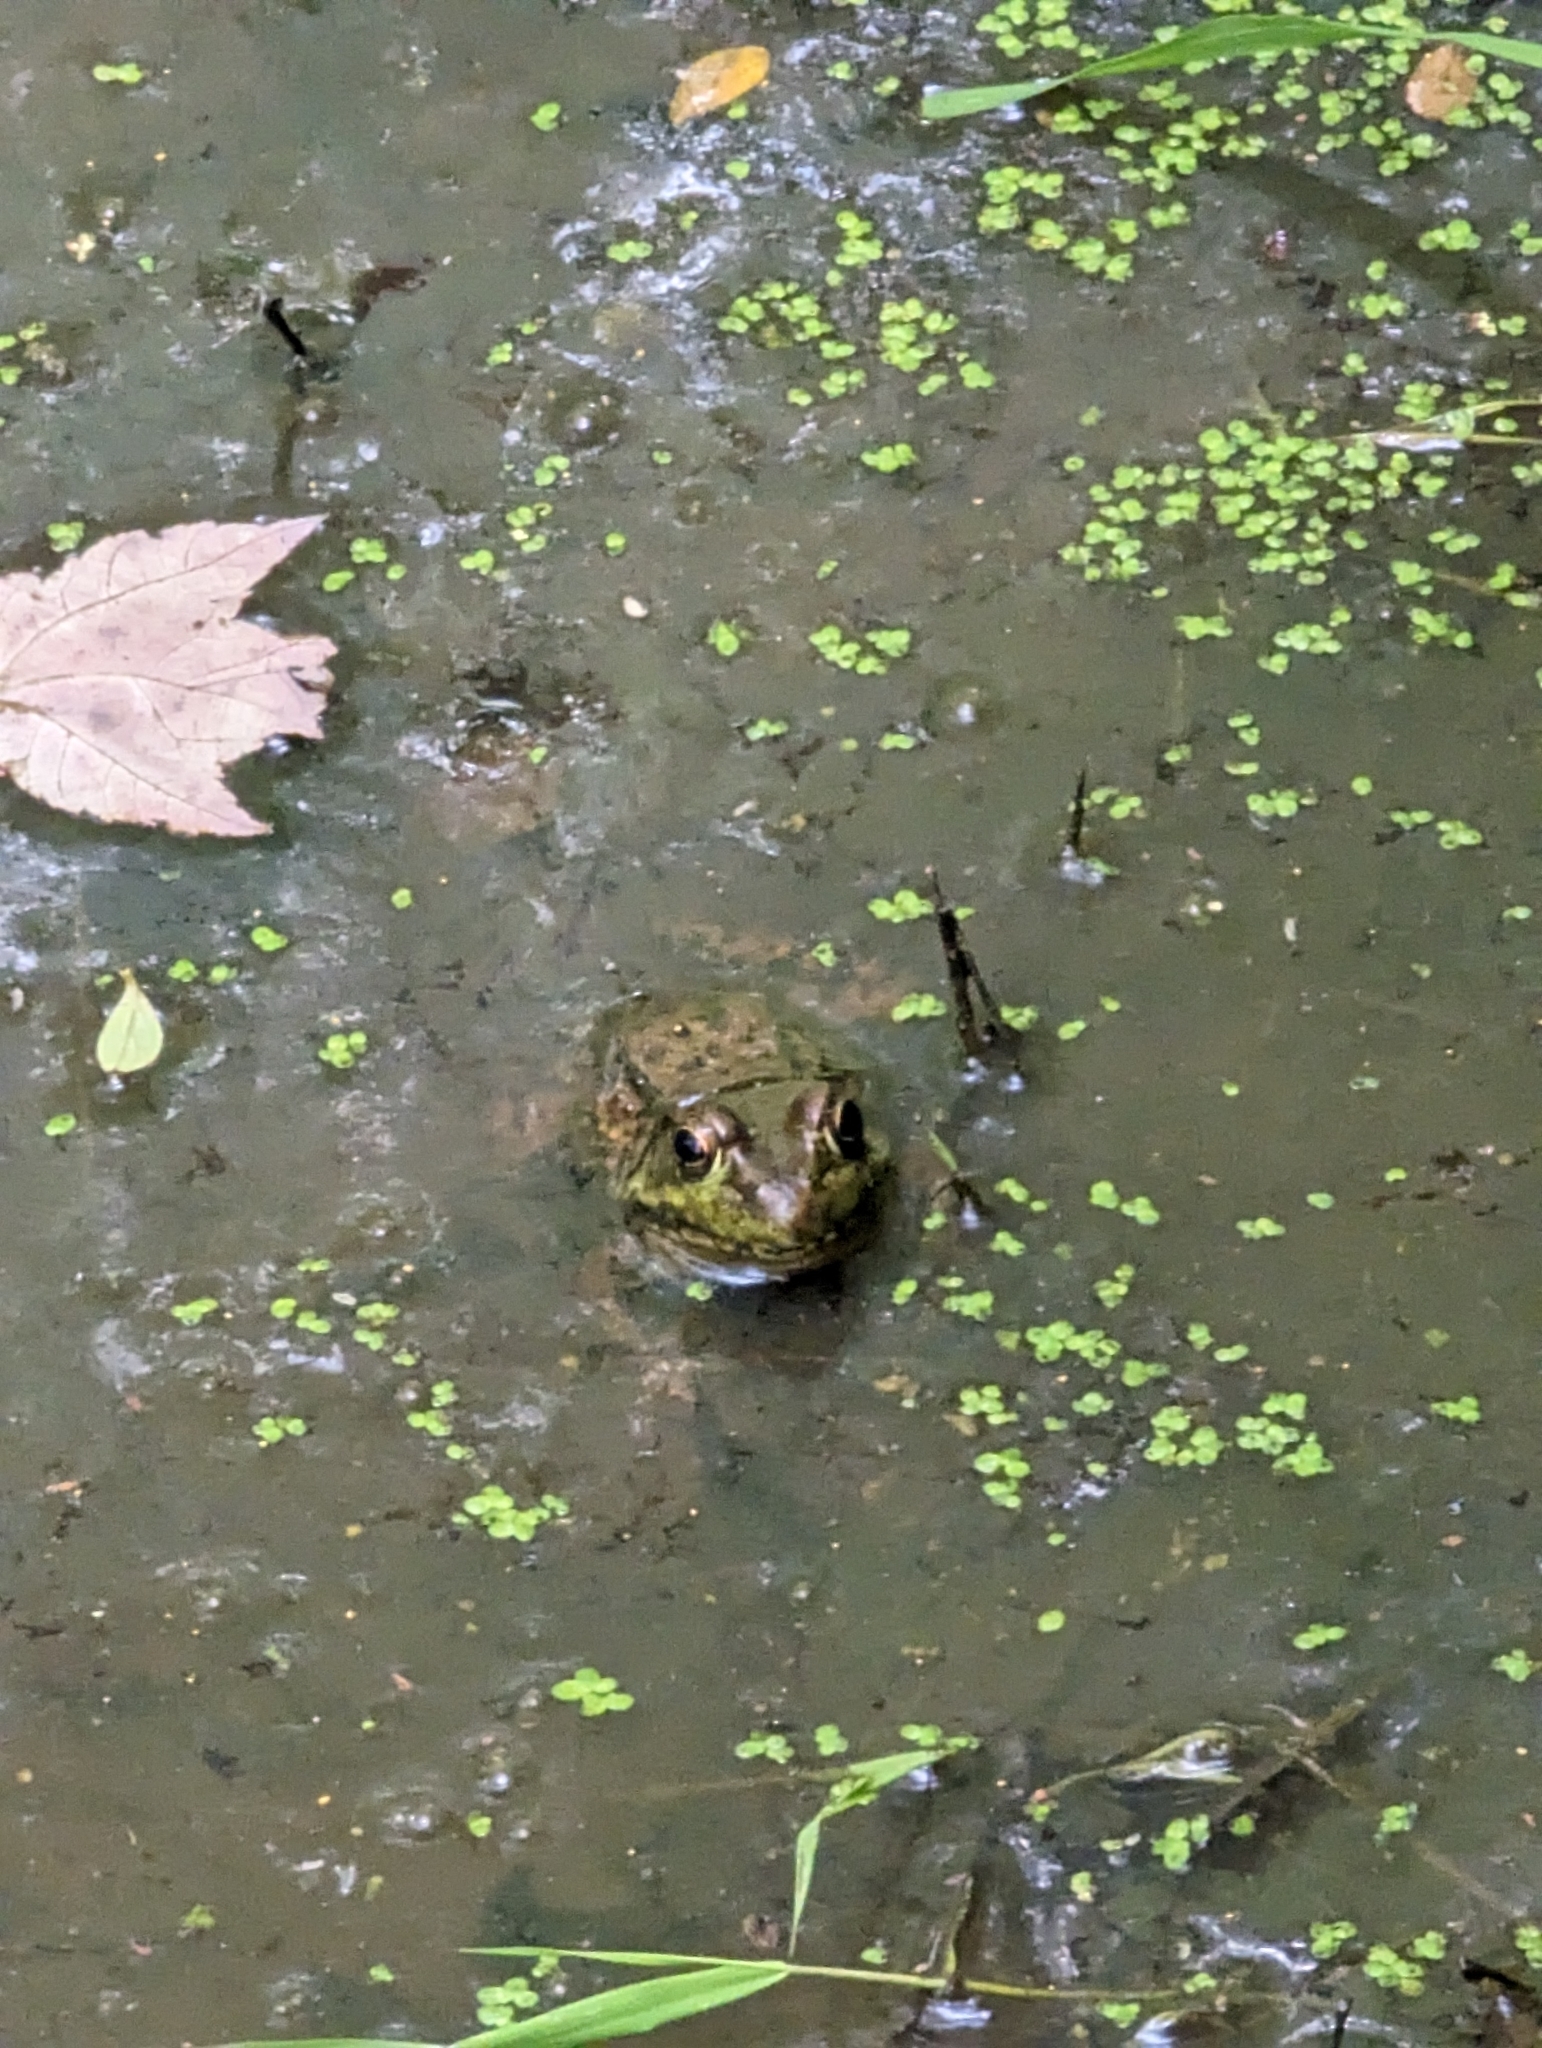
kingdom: Animalia
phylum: Chordata
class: Amphibia
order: Anura
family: Ranidae
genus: Lithobates
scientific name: Lithobates clamitans
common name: Green frog
